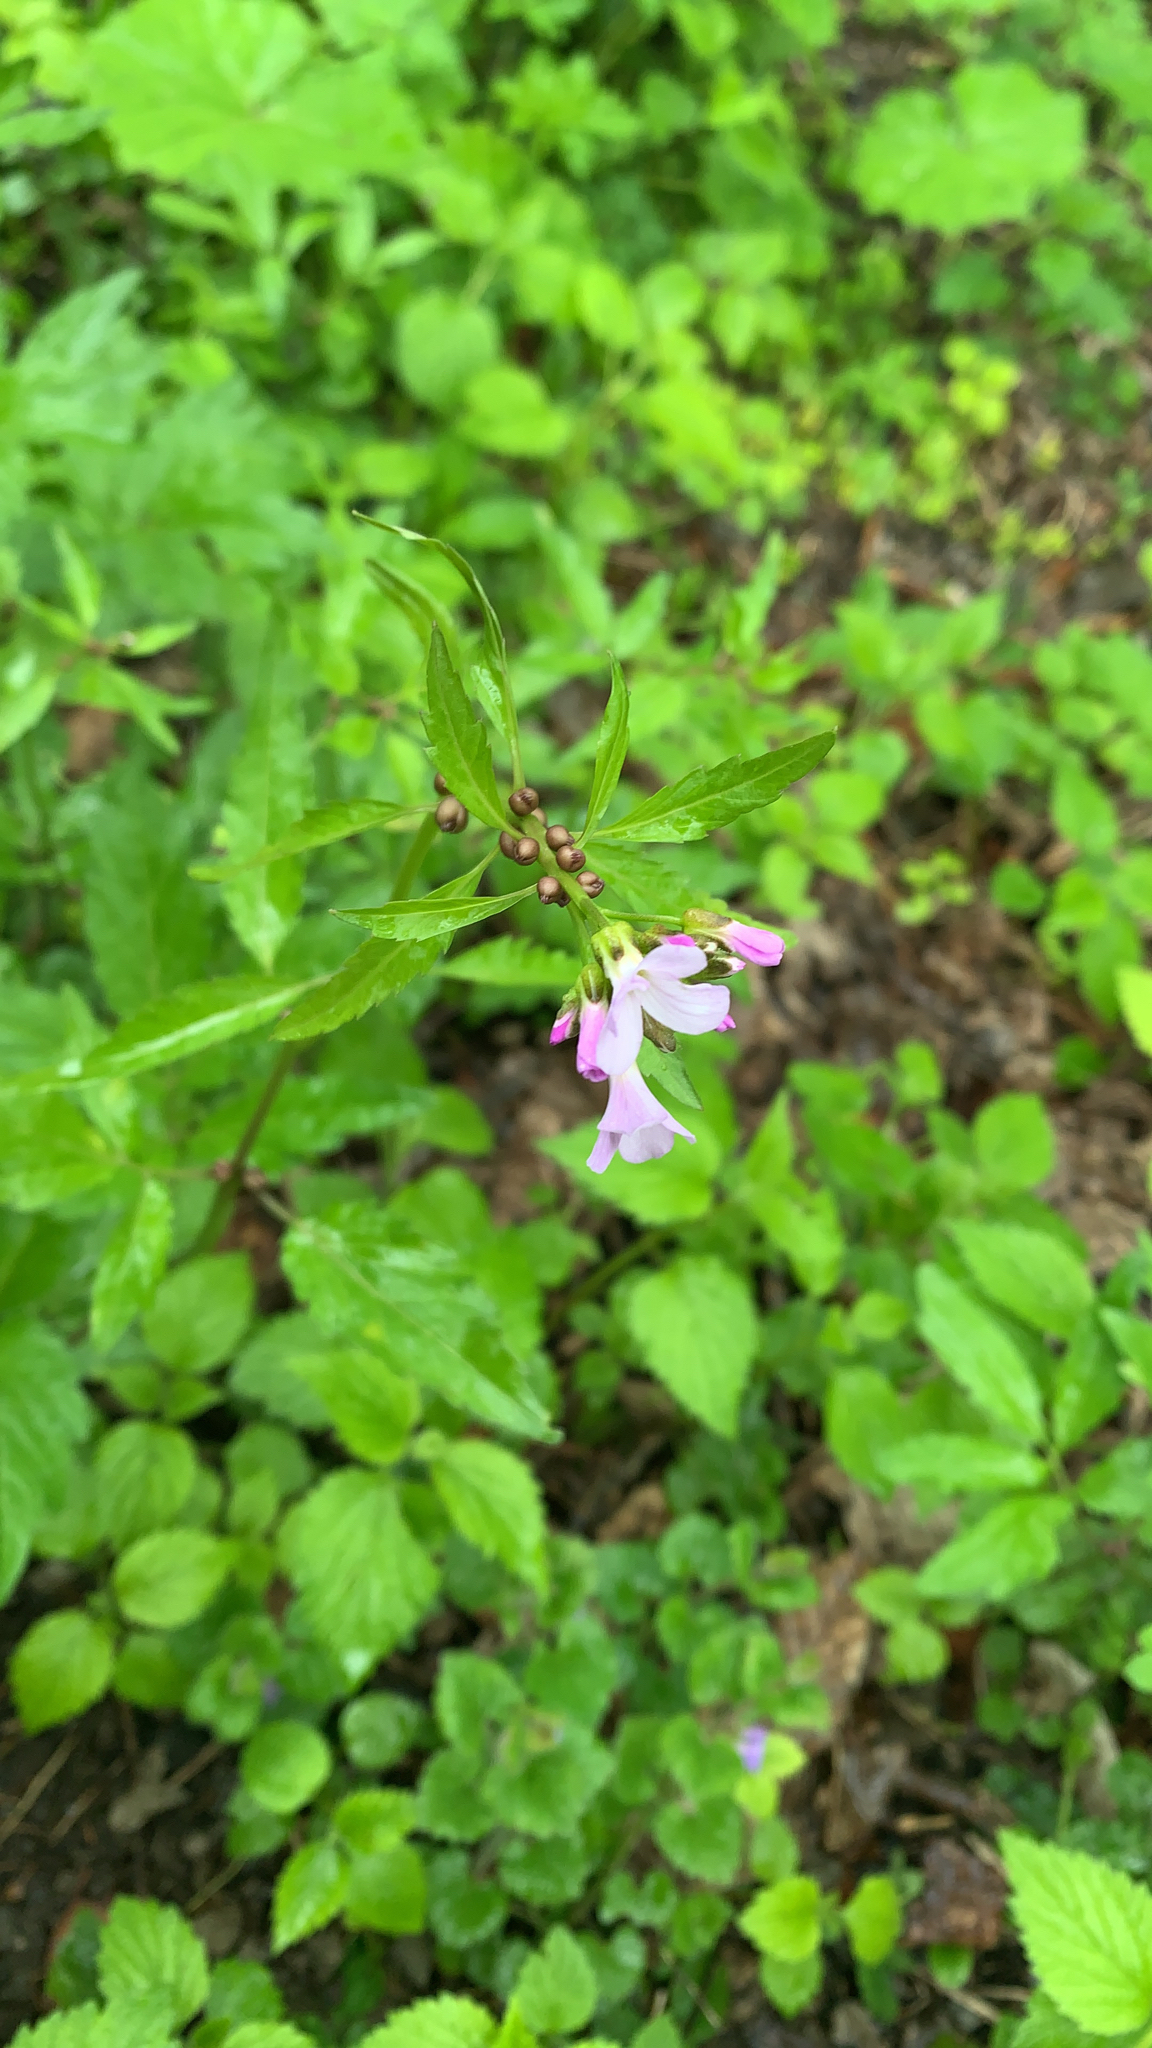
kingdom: Plantae
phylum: Tracheophyta
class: Magnoliopsida
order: Brassicales
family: Brassicaceae
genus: Cardamine
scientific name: Cardamine bulbifera
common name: Coralroot bittercress
